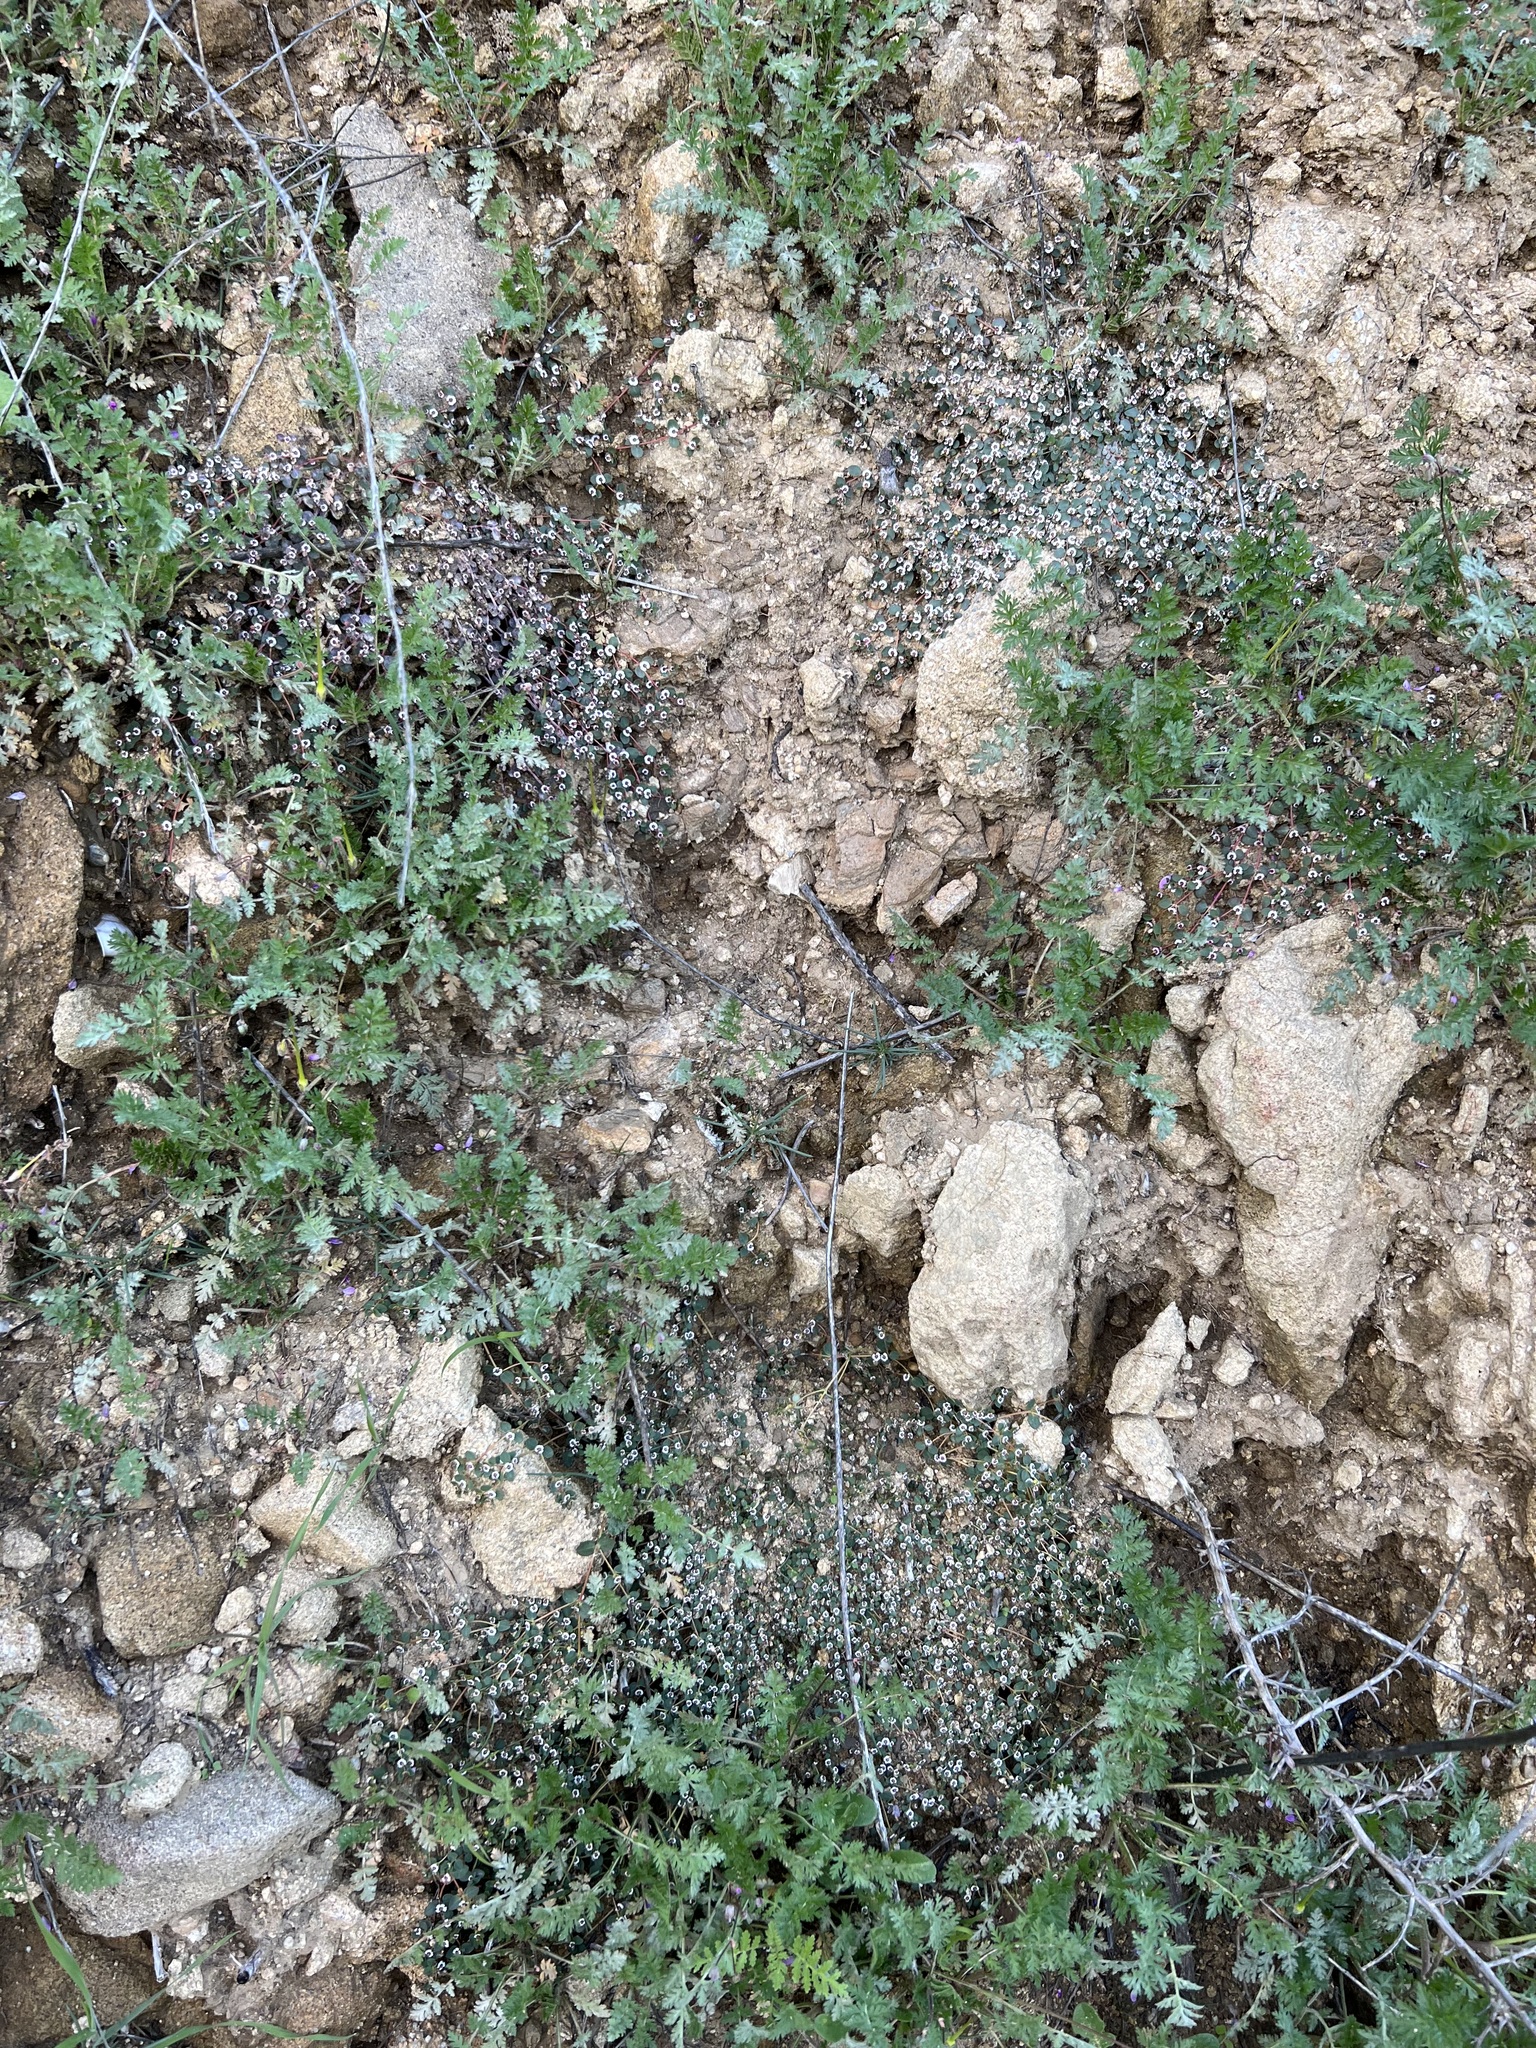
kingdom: Plantae
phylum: Tracheophyta
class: Magnoliopsida
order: Malpighiales
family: Euphorbiaceae
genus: Euphorbia
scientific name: Euphorbia polycarpa
